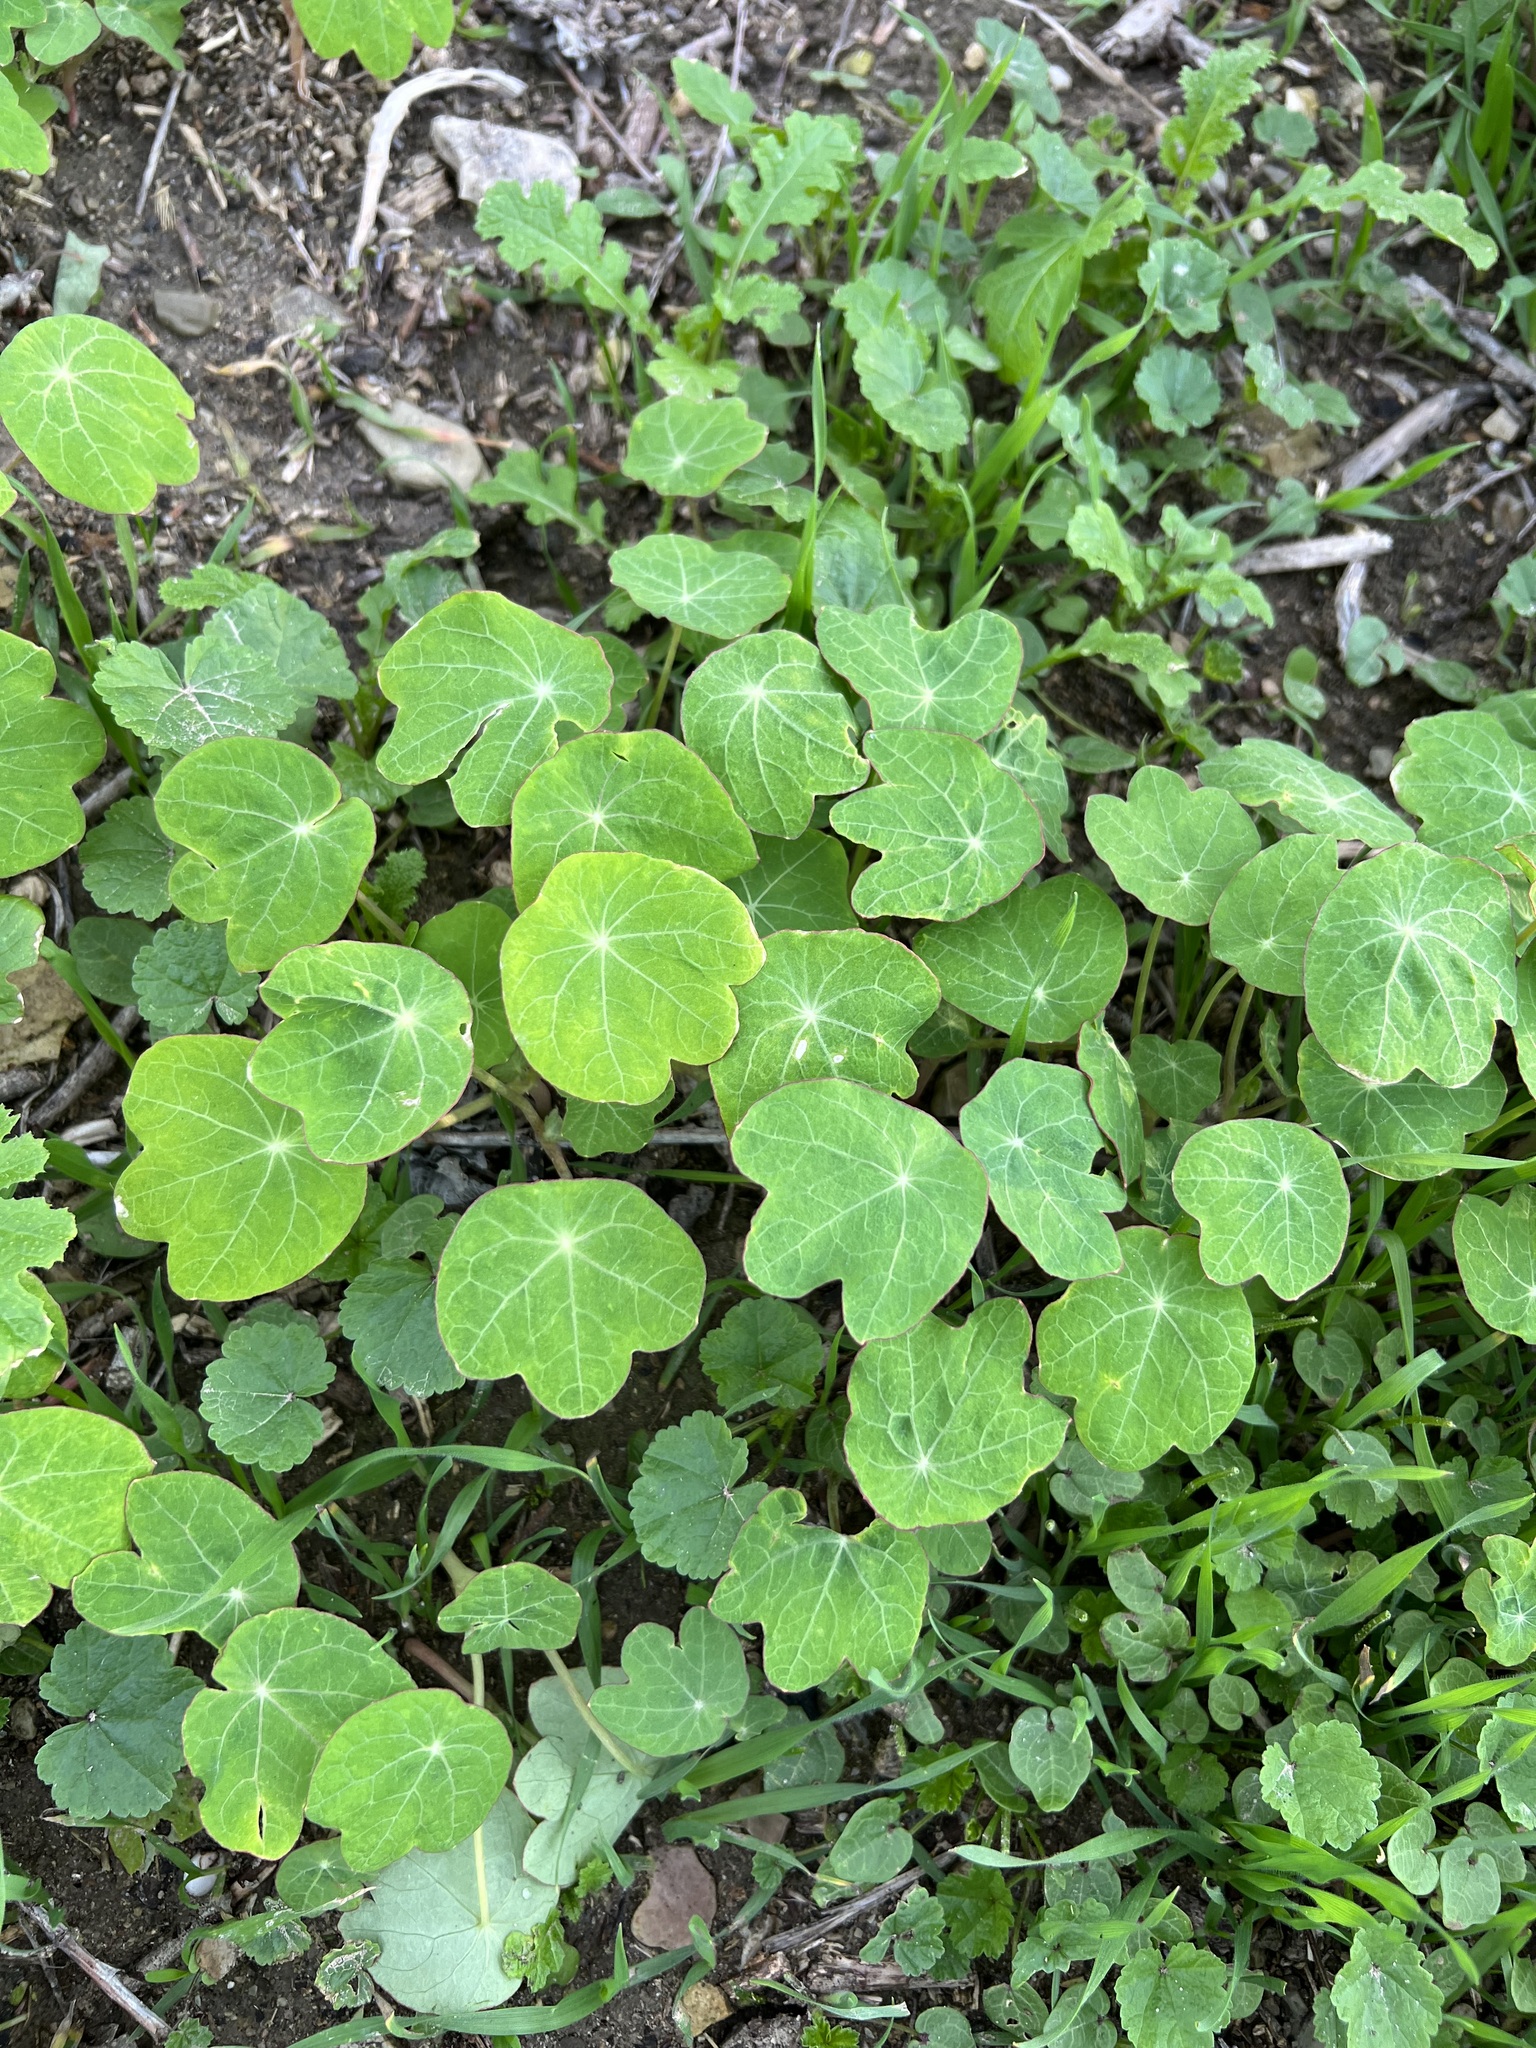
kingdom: Plantae
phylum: Tracheophyta
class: Magnoliopsida
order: Brassicales
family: Tropaeolaceae
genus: Tropaeolum
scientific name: Tropaeolum majus
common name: Nasturtium
